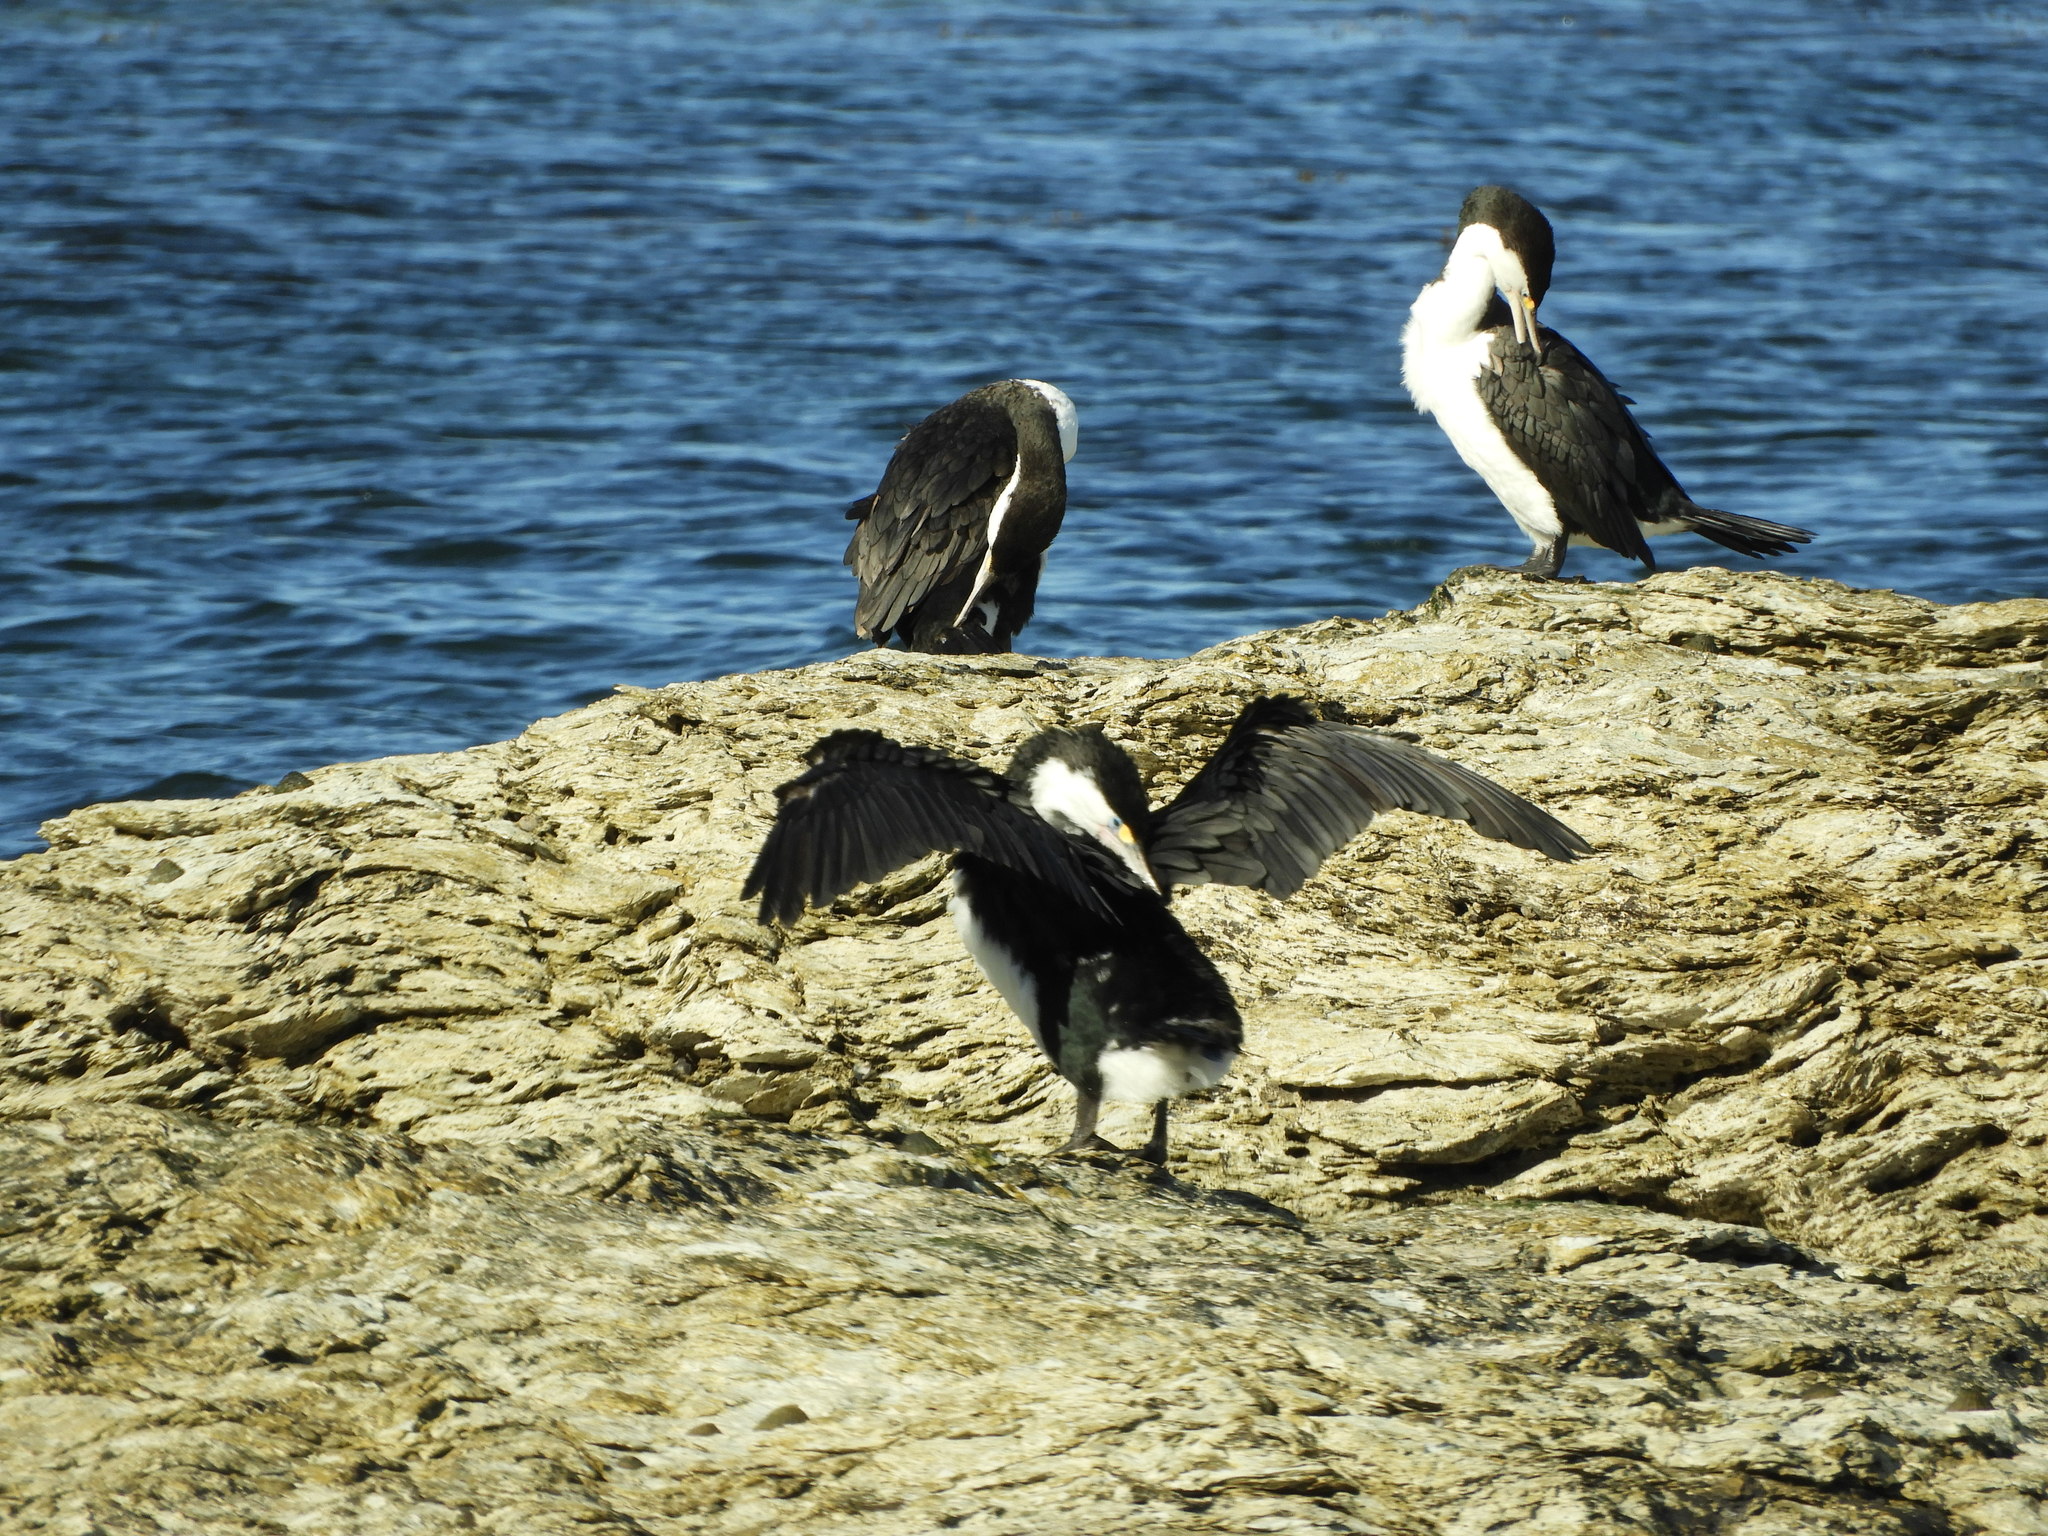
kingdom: Animalia
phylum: Chordata
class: Aves
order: Suliformes
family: Phalacrocoracidae
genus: Phalacrocorax
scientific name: Phalacrocorax varius
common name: Pied cormorant
